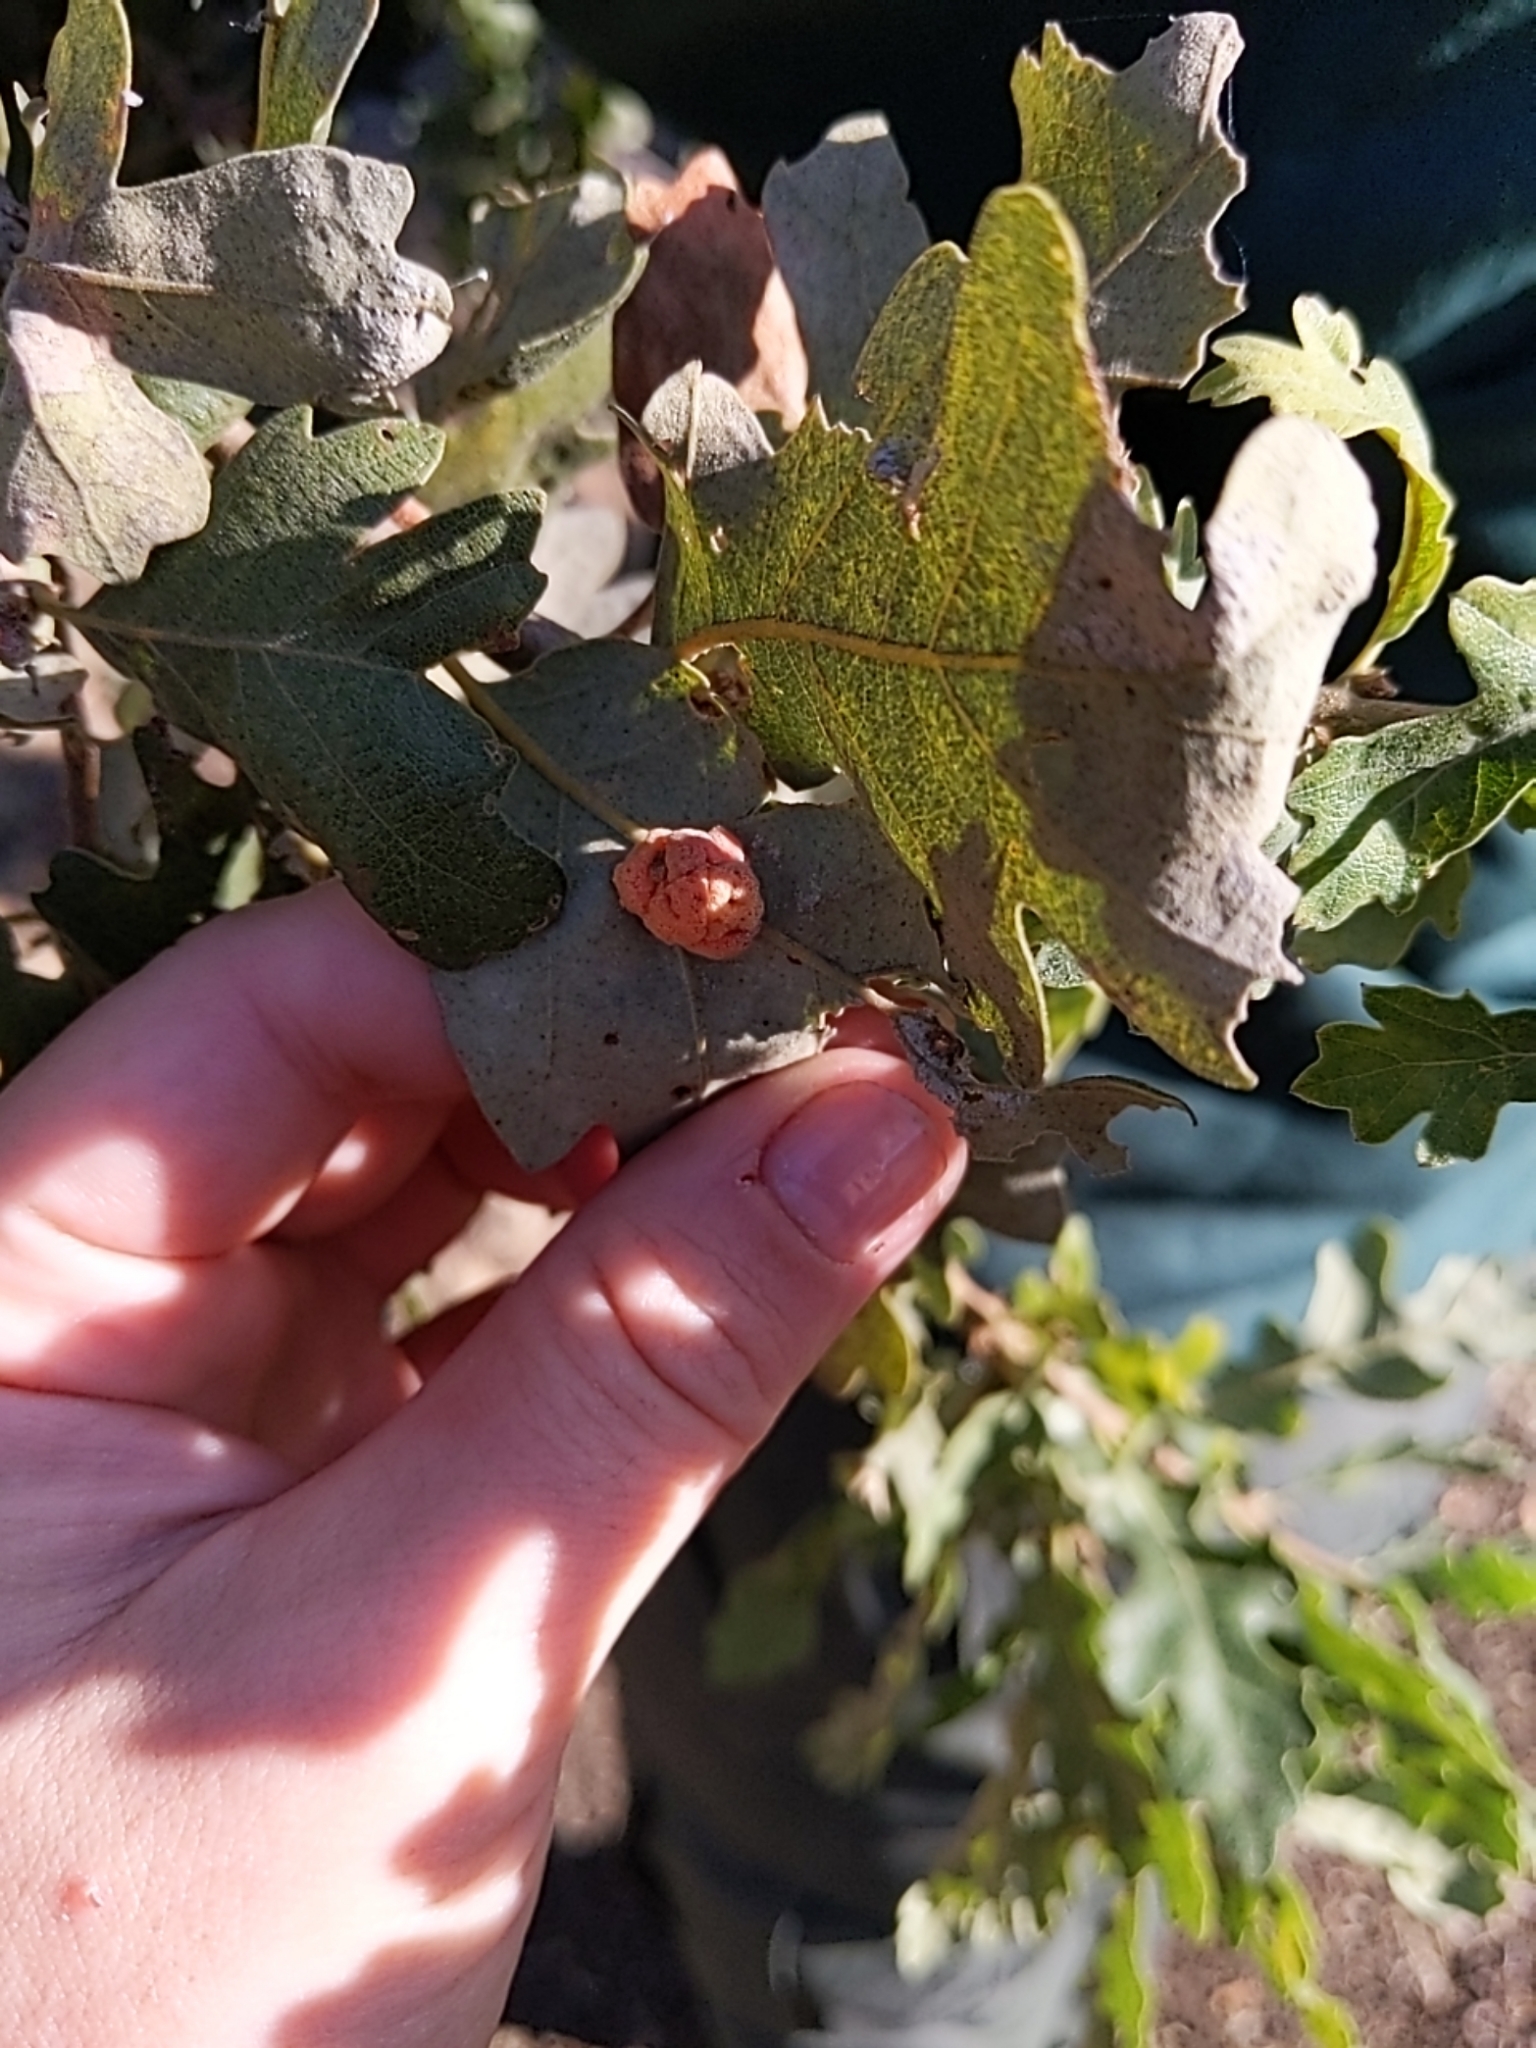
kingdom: Animalia
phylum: Arthropoda
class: Insecta
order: Hymenoptera
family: Cynipidae
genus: Andricus
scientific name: Andricus
